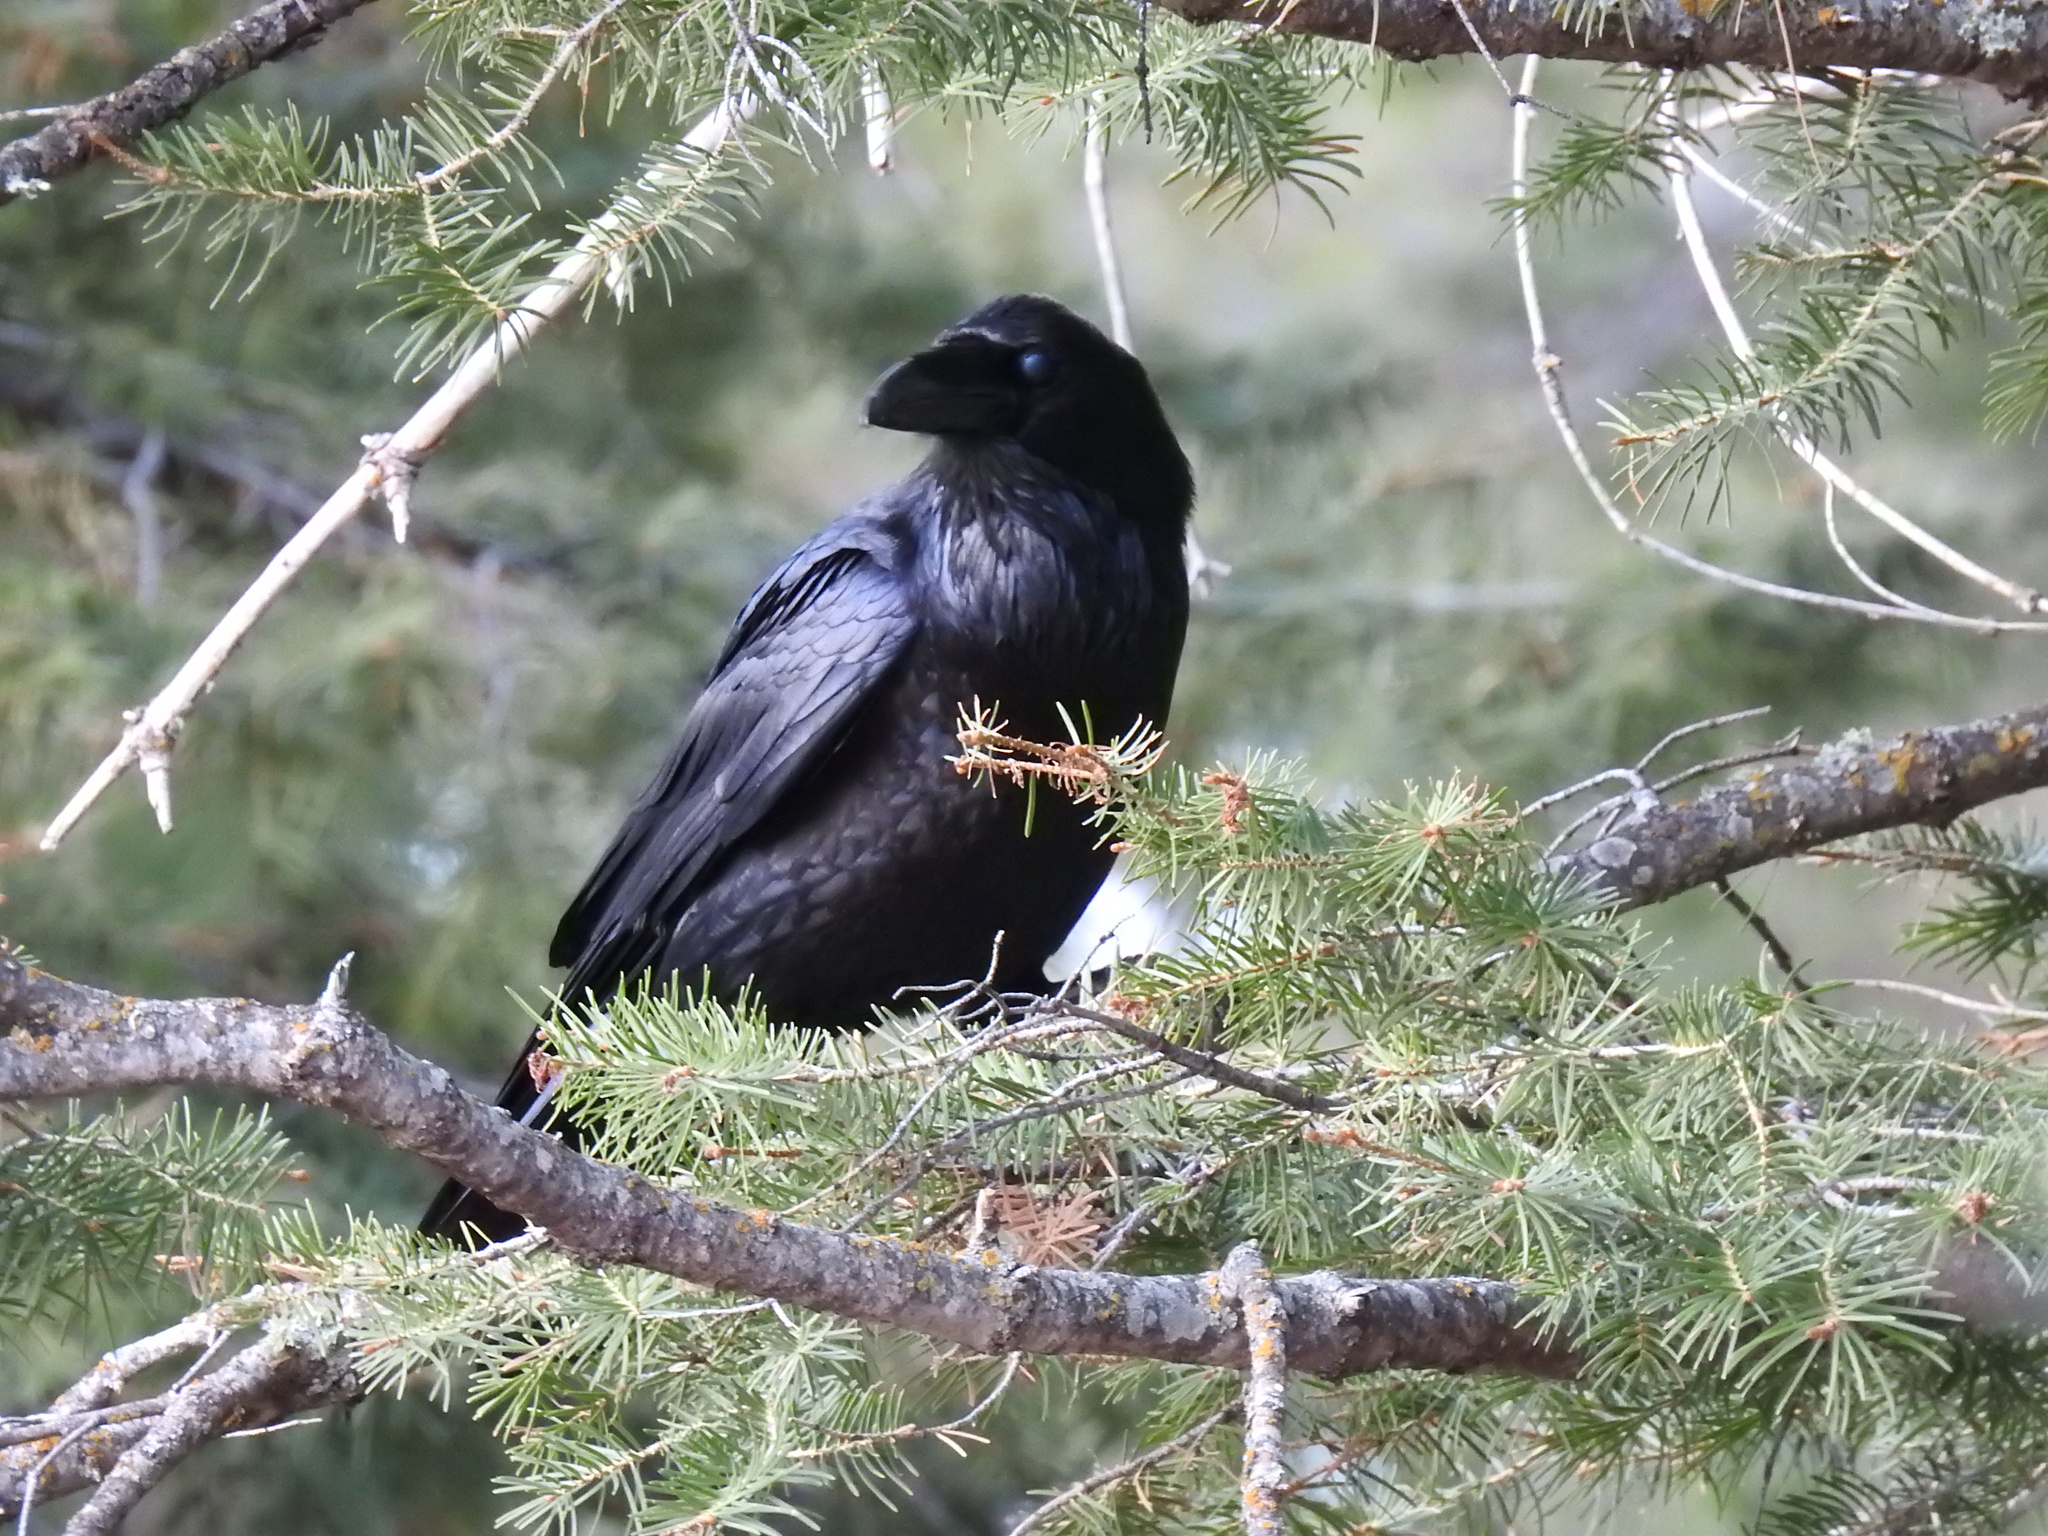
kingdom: Animalia
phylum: Chordata
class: Aves
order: Passeriformes
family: Corvidae
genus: Corvus
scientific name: Corvus corax
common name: Common raven
